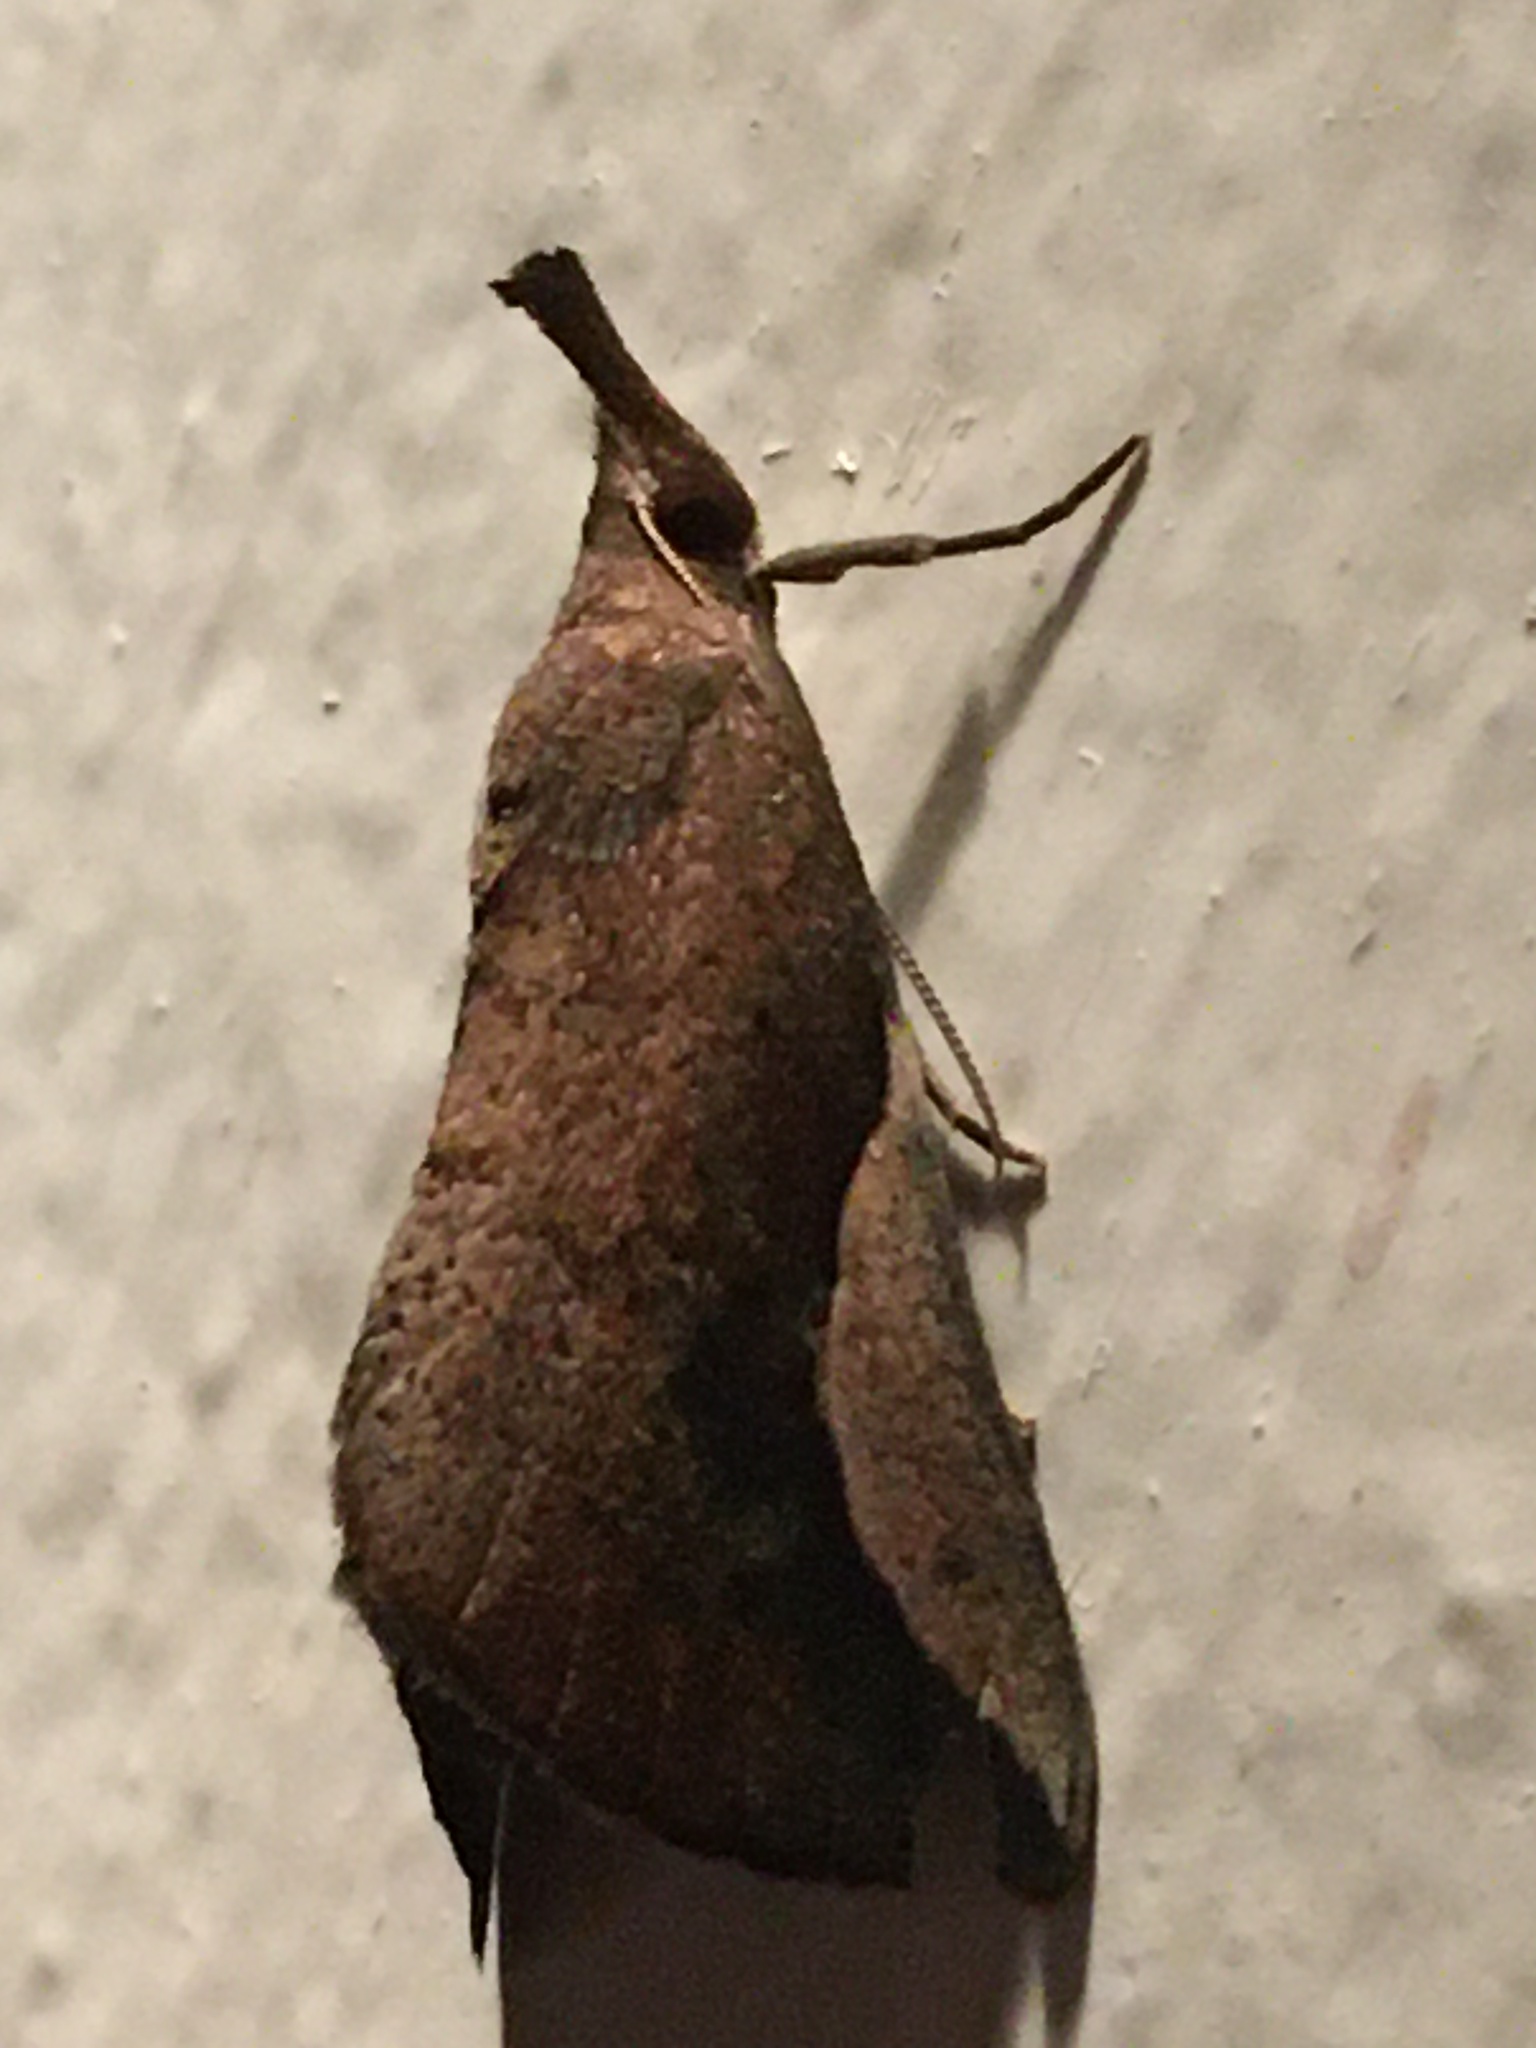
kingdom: Animalia
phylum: Arthropoda
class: Insecta
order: Lepidoptera
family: Erebidae
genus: Hypena
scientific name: Hypena jonesalis
